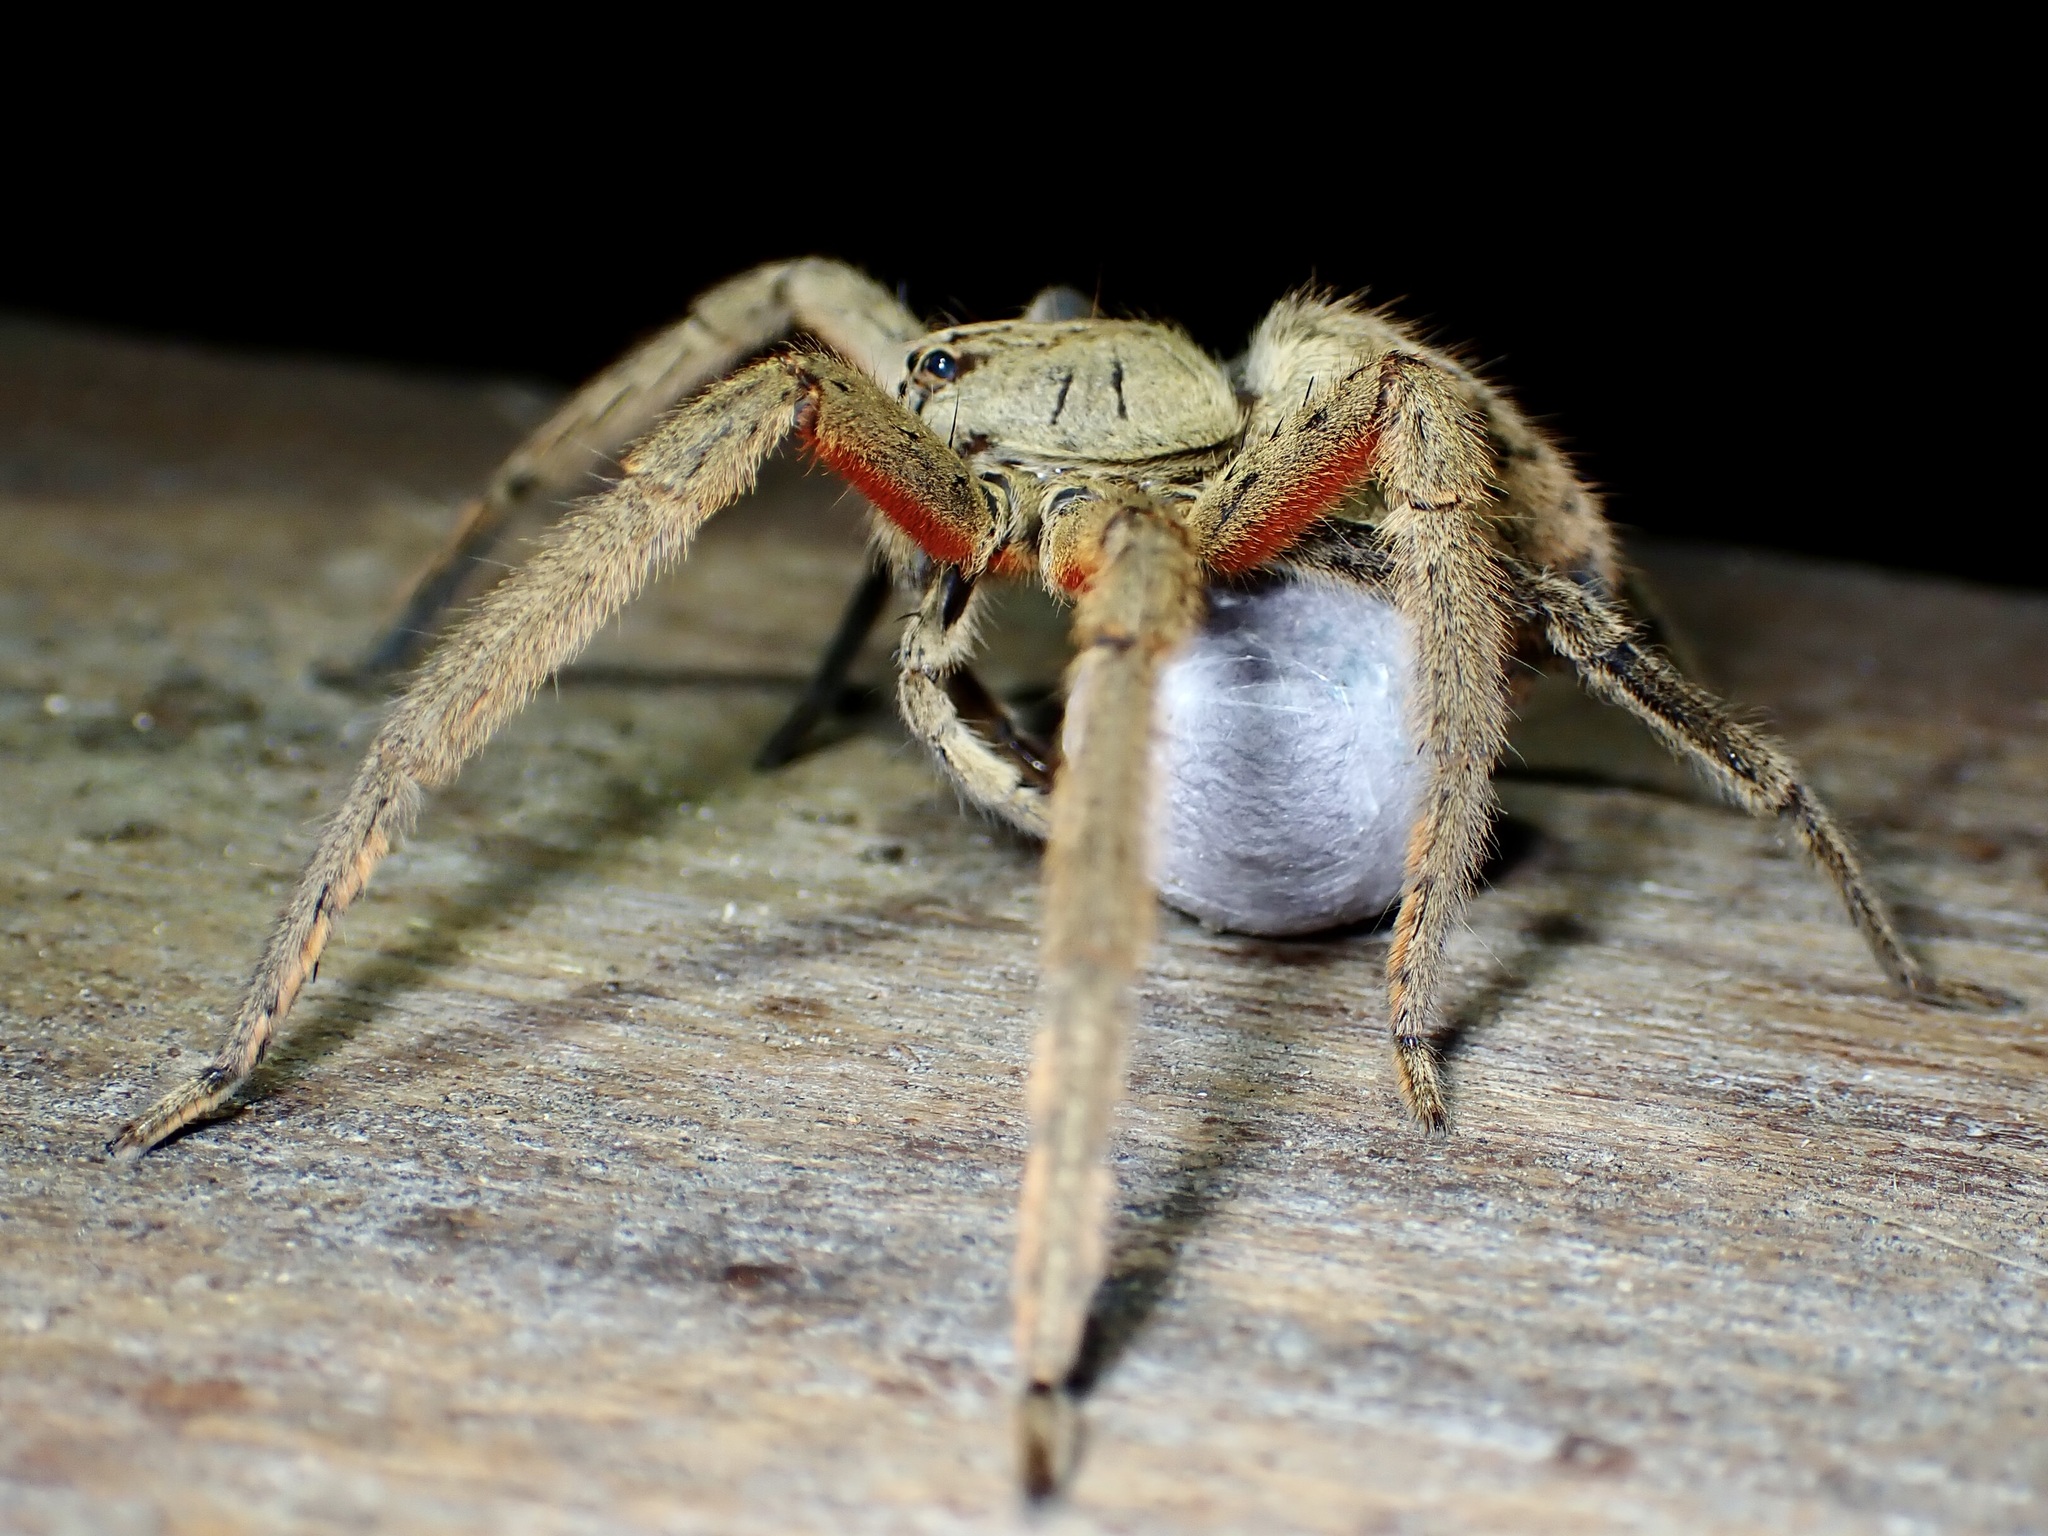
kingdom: Animalia
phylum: Arthropoda
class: Arachnida
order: Araneae
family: Trechaleidae
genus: Cupiennius
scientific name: Cupiennius coccineus
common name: Wandering spiders
